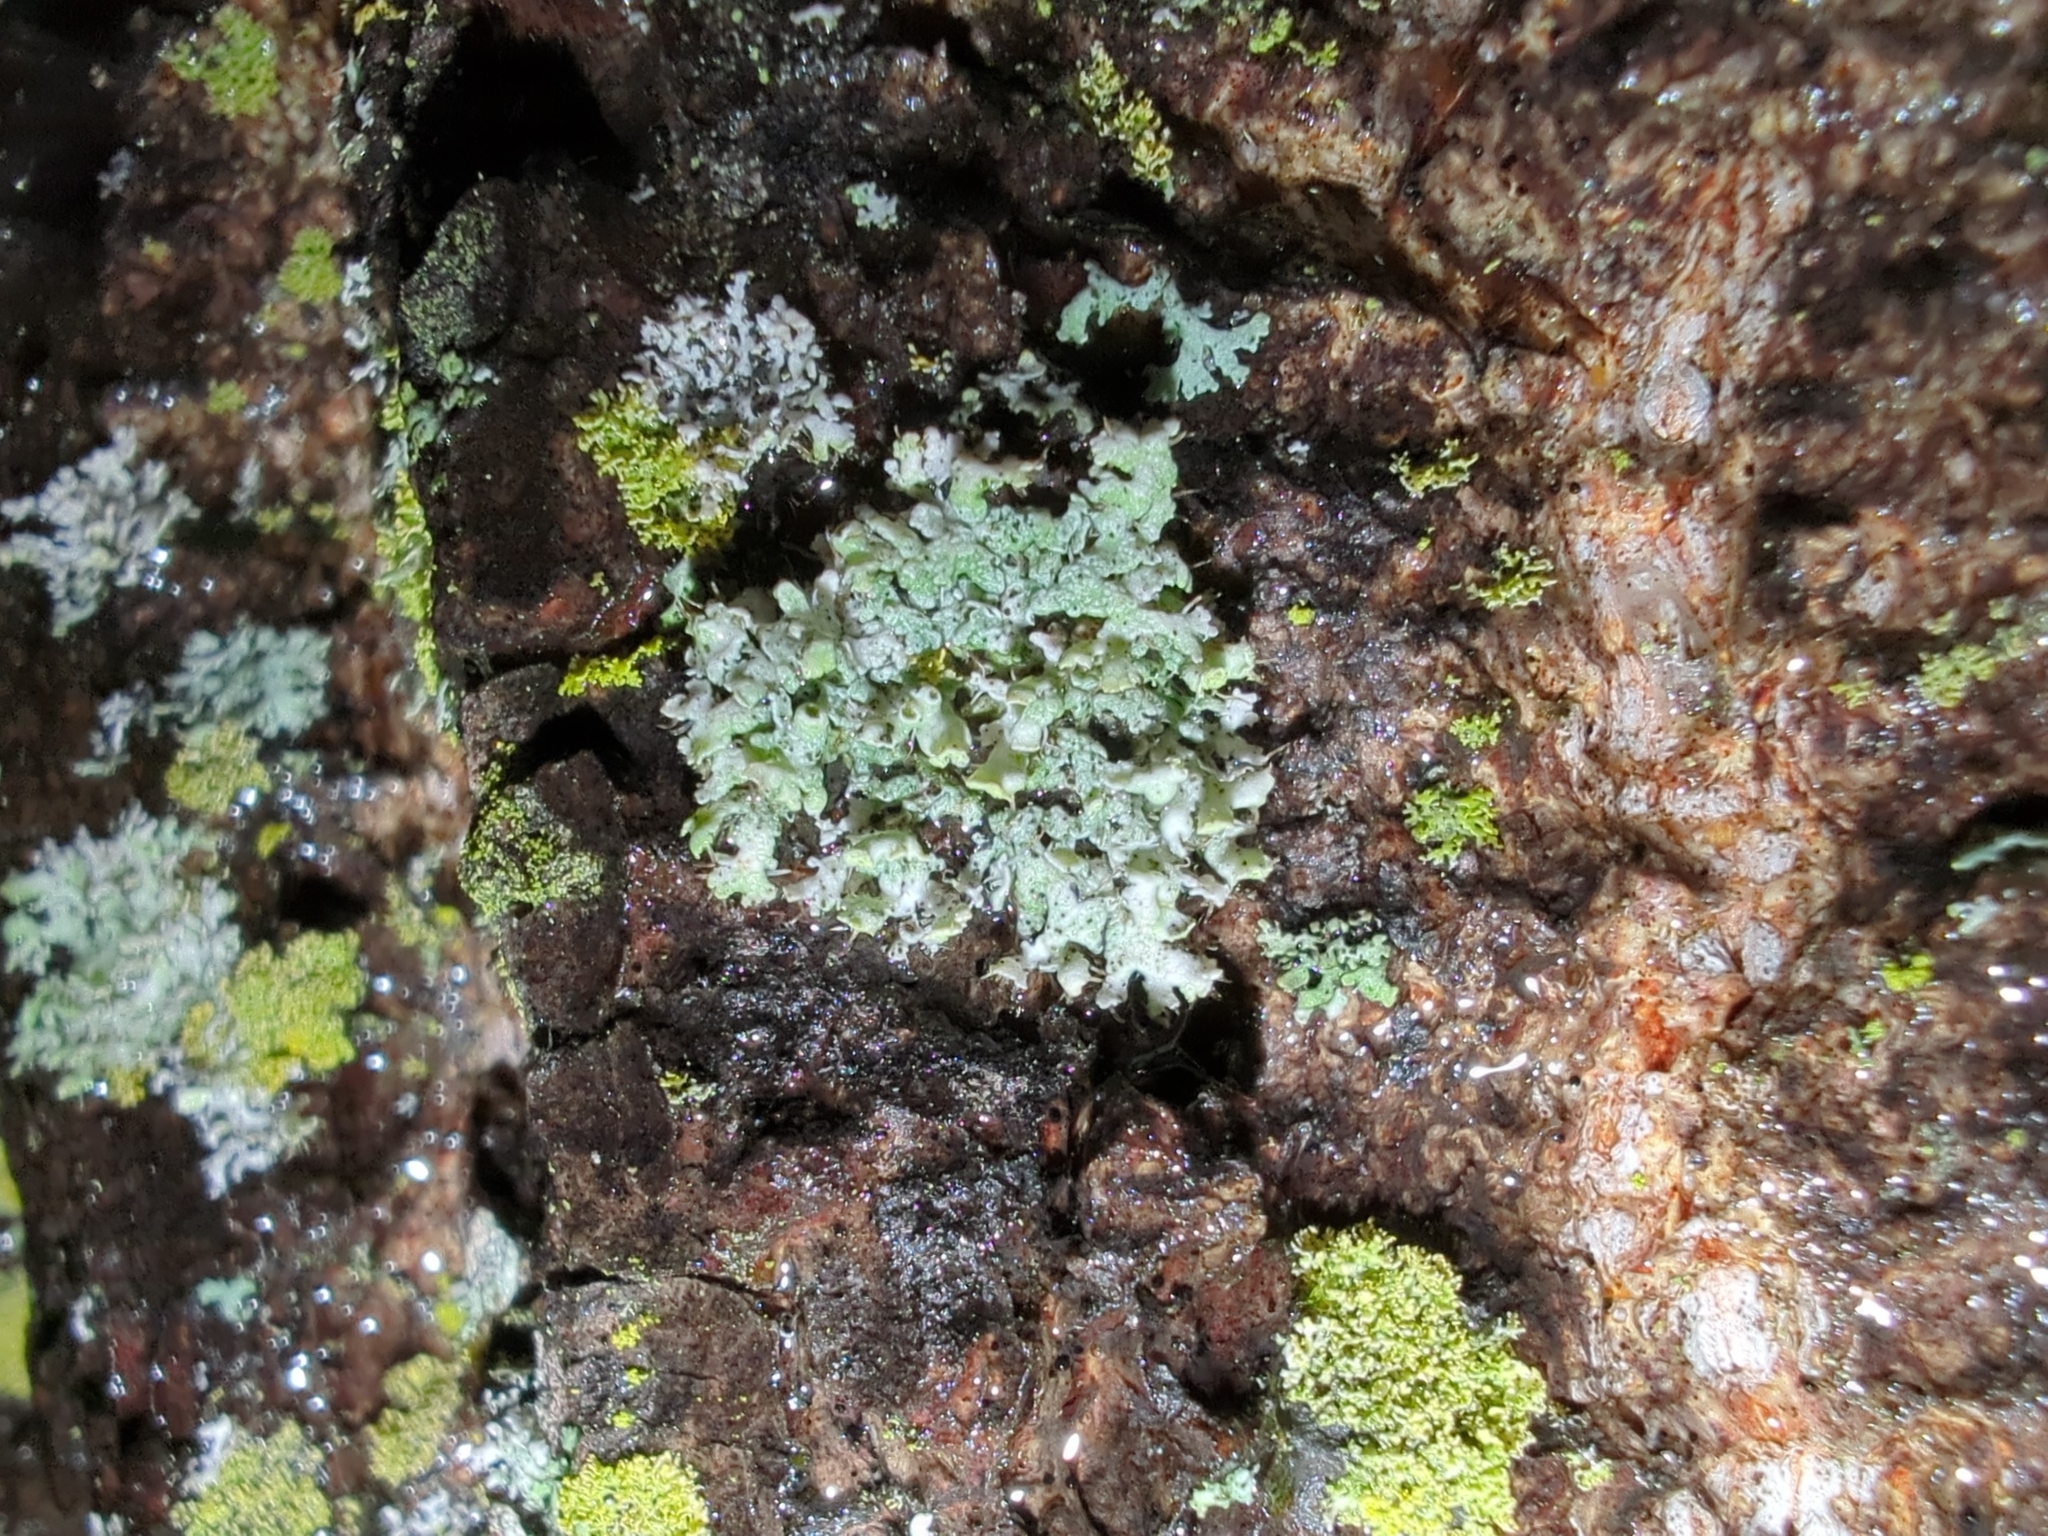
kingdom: Fungi
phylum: Ascomycota
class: Lecanoromycetes
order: Caliciales
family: Physciaceae
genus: Physcia
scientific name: Physcia adscendens
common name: Hooded rosette lichen
